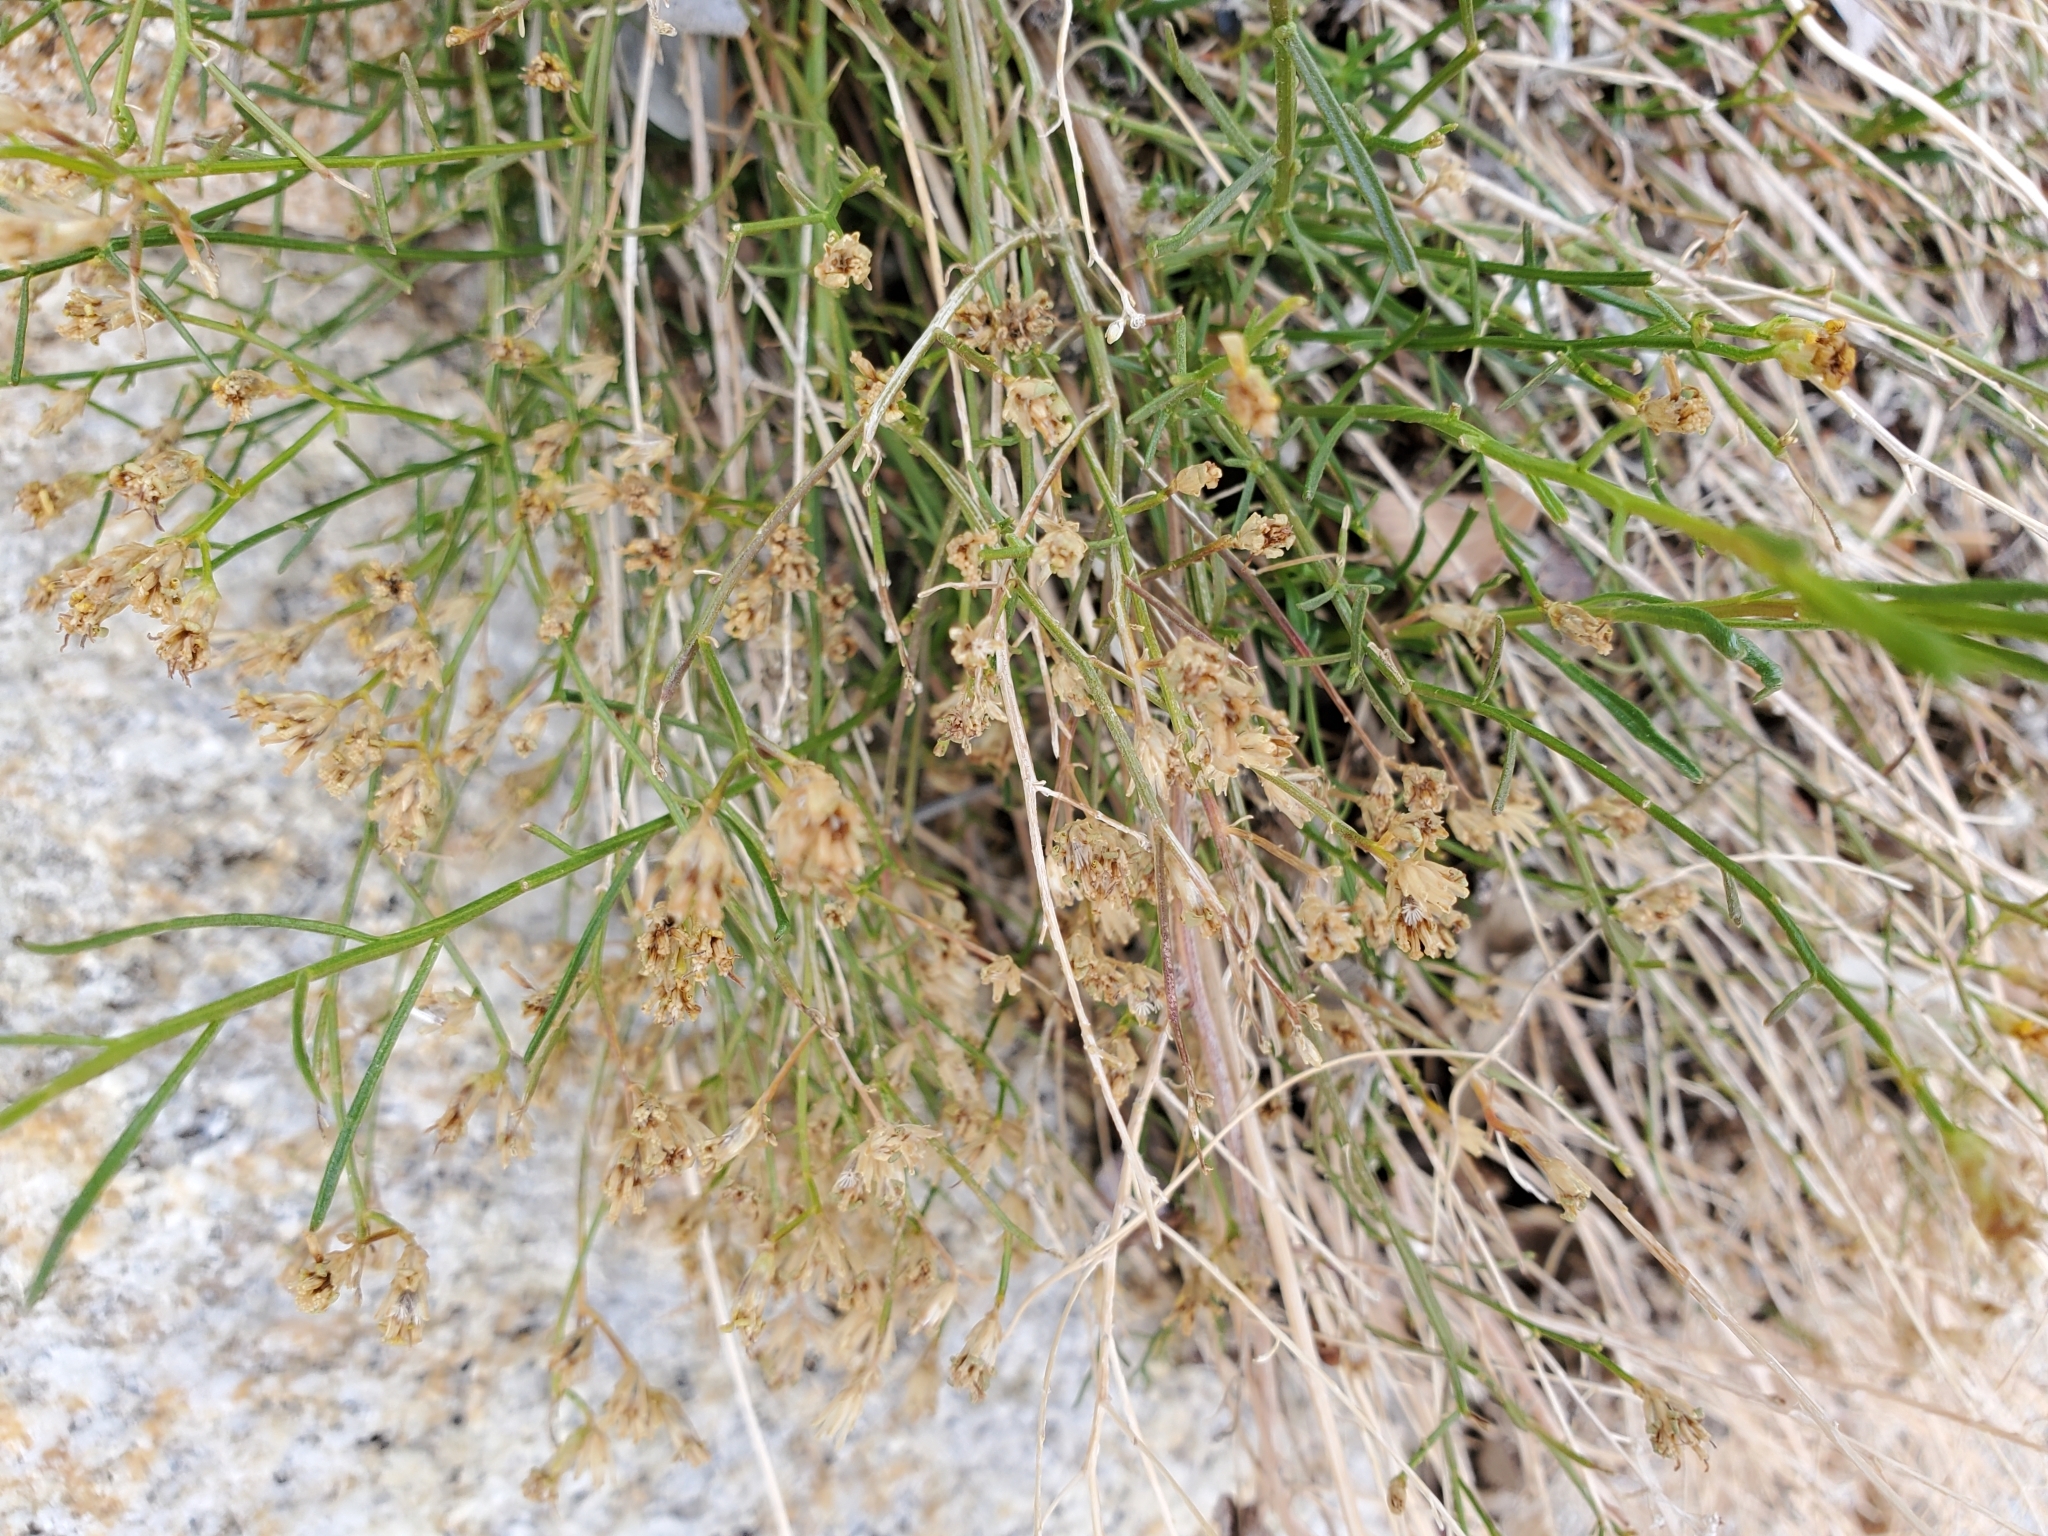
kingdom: Plantae
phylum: Tracheophyta
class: Magnoliopsida
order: Asterales
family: Asteraceae
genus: Gutierrezia
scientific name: Gutierrezia sarothrae
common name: Broom snakeweed
